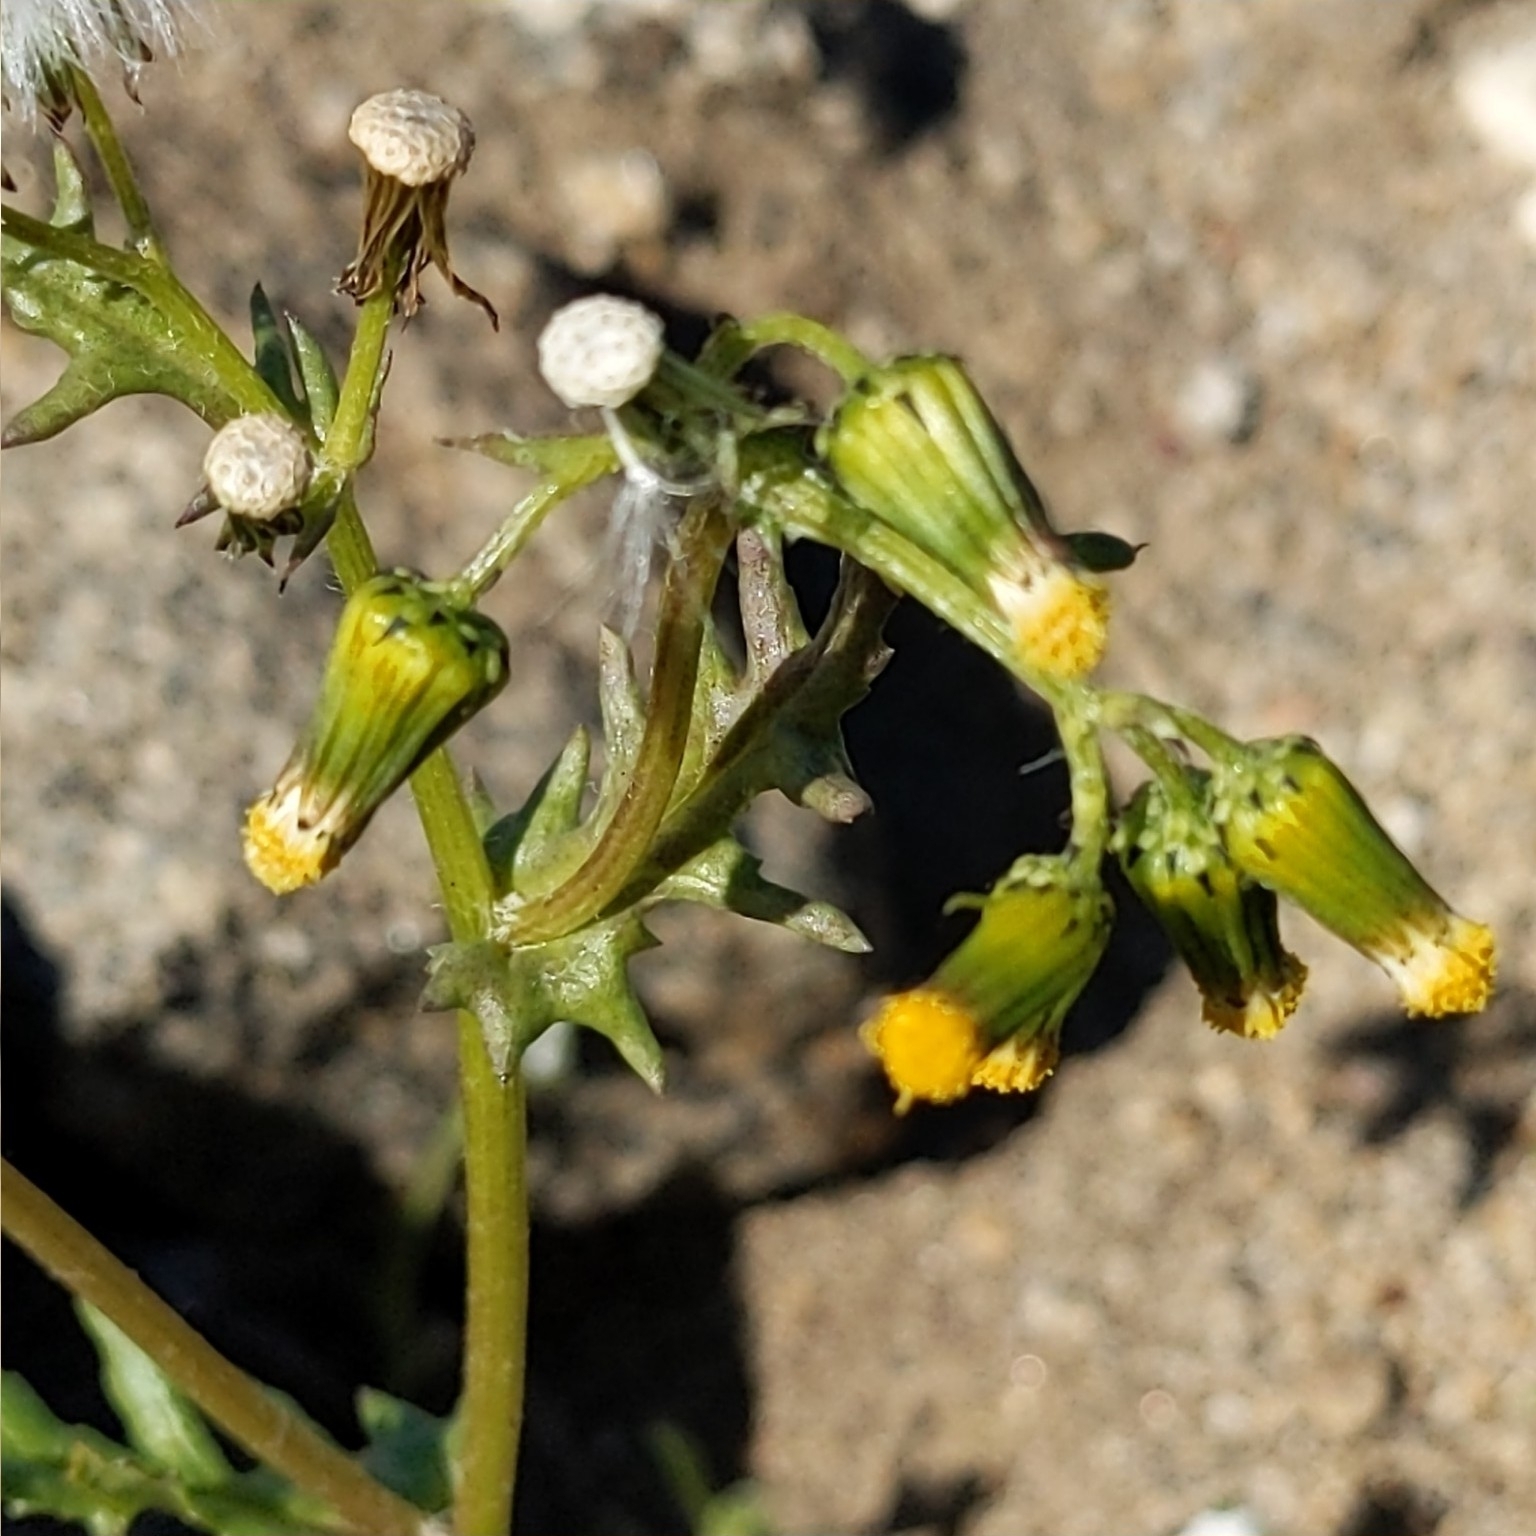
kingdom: Plantae
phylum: Tracheophyta
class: Magnoliopsida
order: Asterales
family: Asteraceae
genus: Senecio
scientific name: Senecio vulgaris
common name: Old-man-in-the-spring
